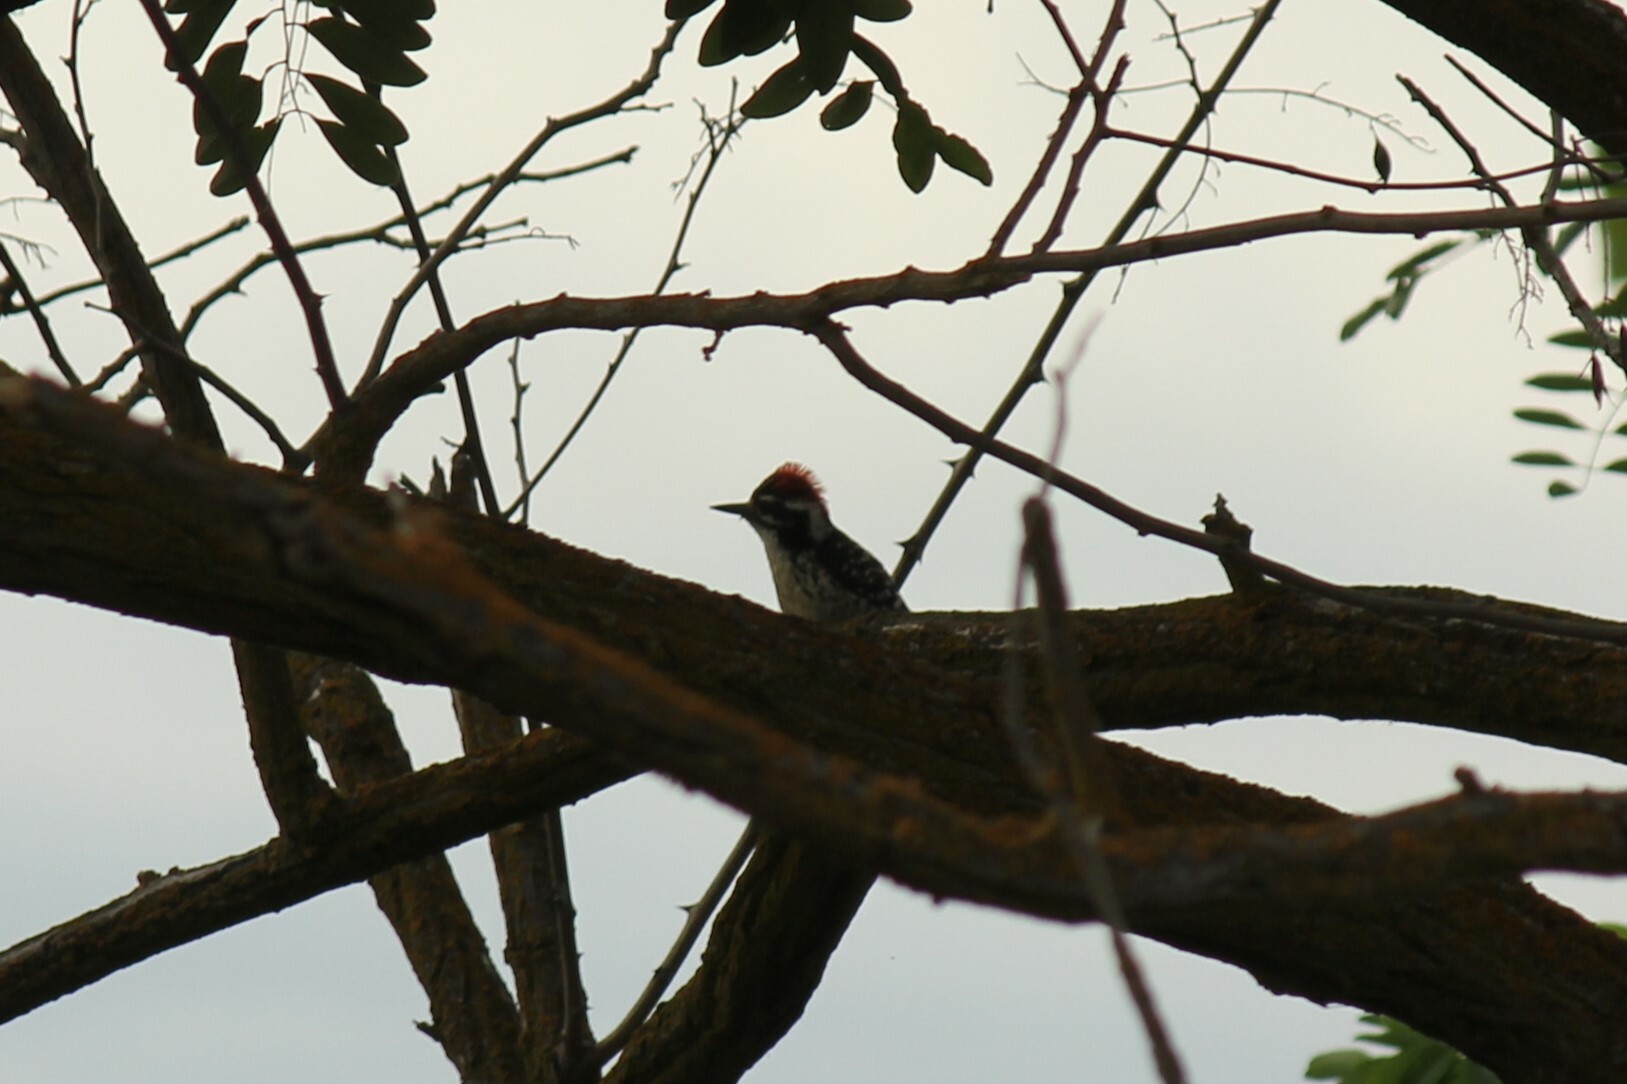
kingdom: Animalia
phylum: Chordata
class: Aves
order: Piciformes
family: Picidae
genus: Dryobates
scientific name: Dryobates nuttallii
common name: Nuttall's woodpecker
